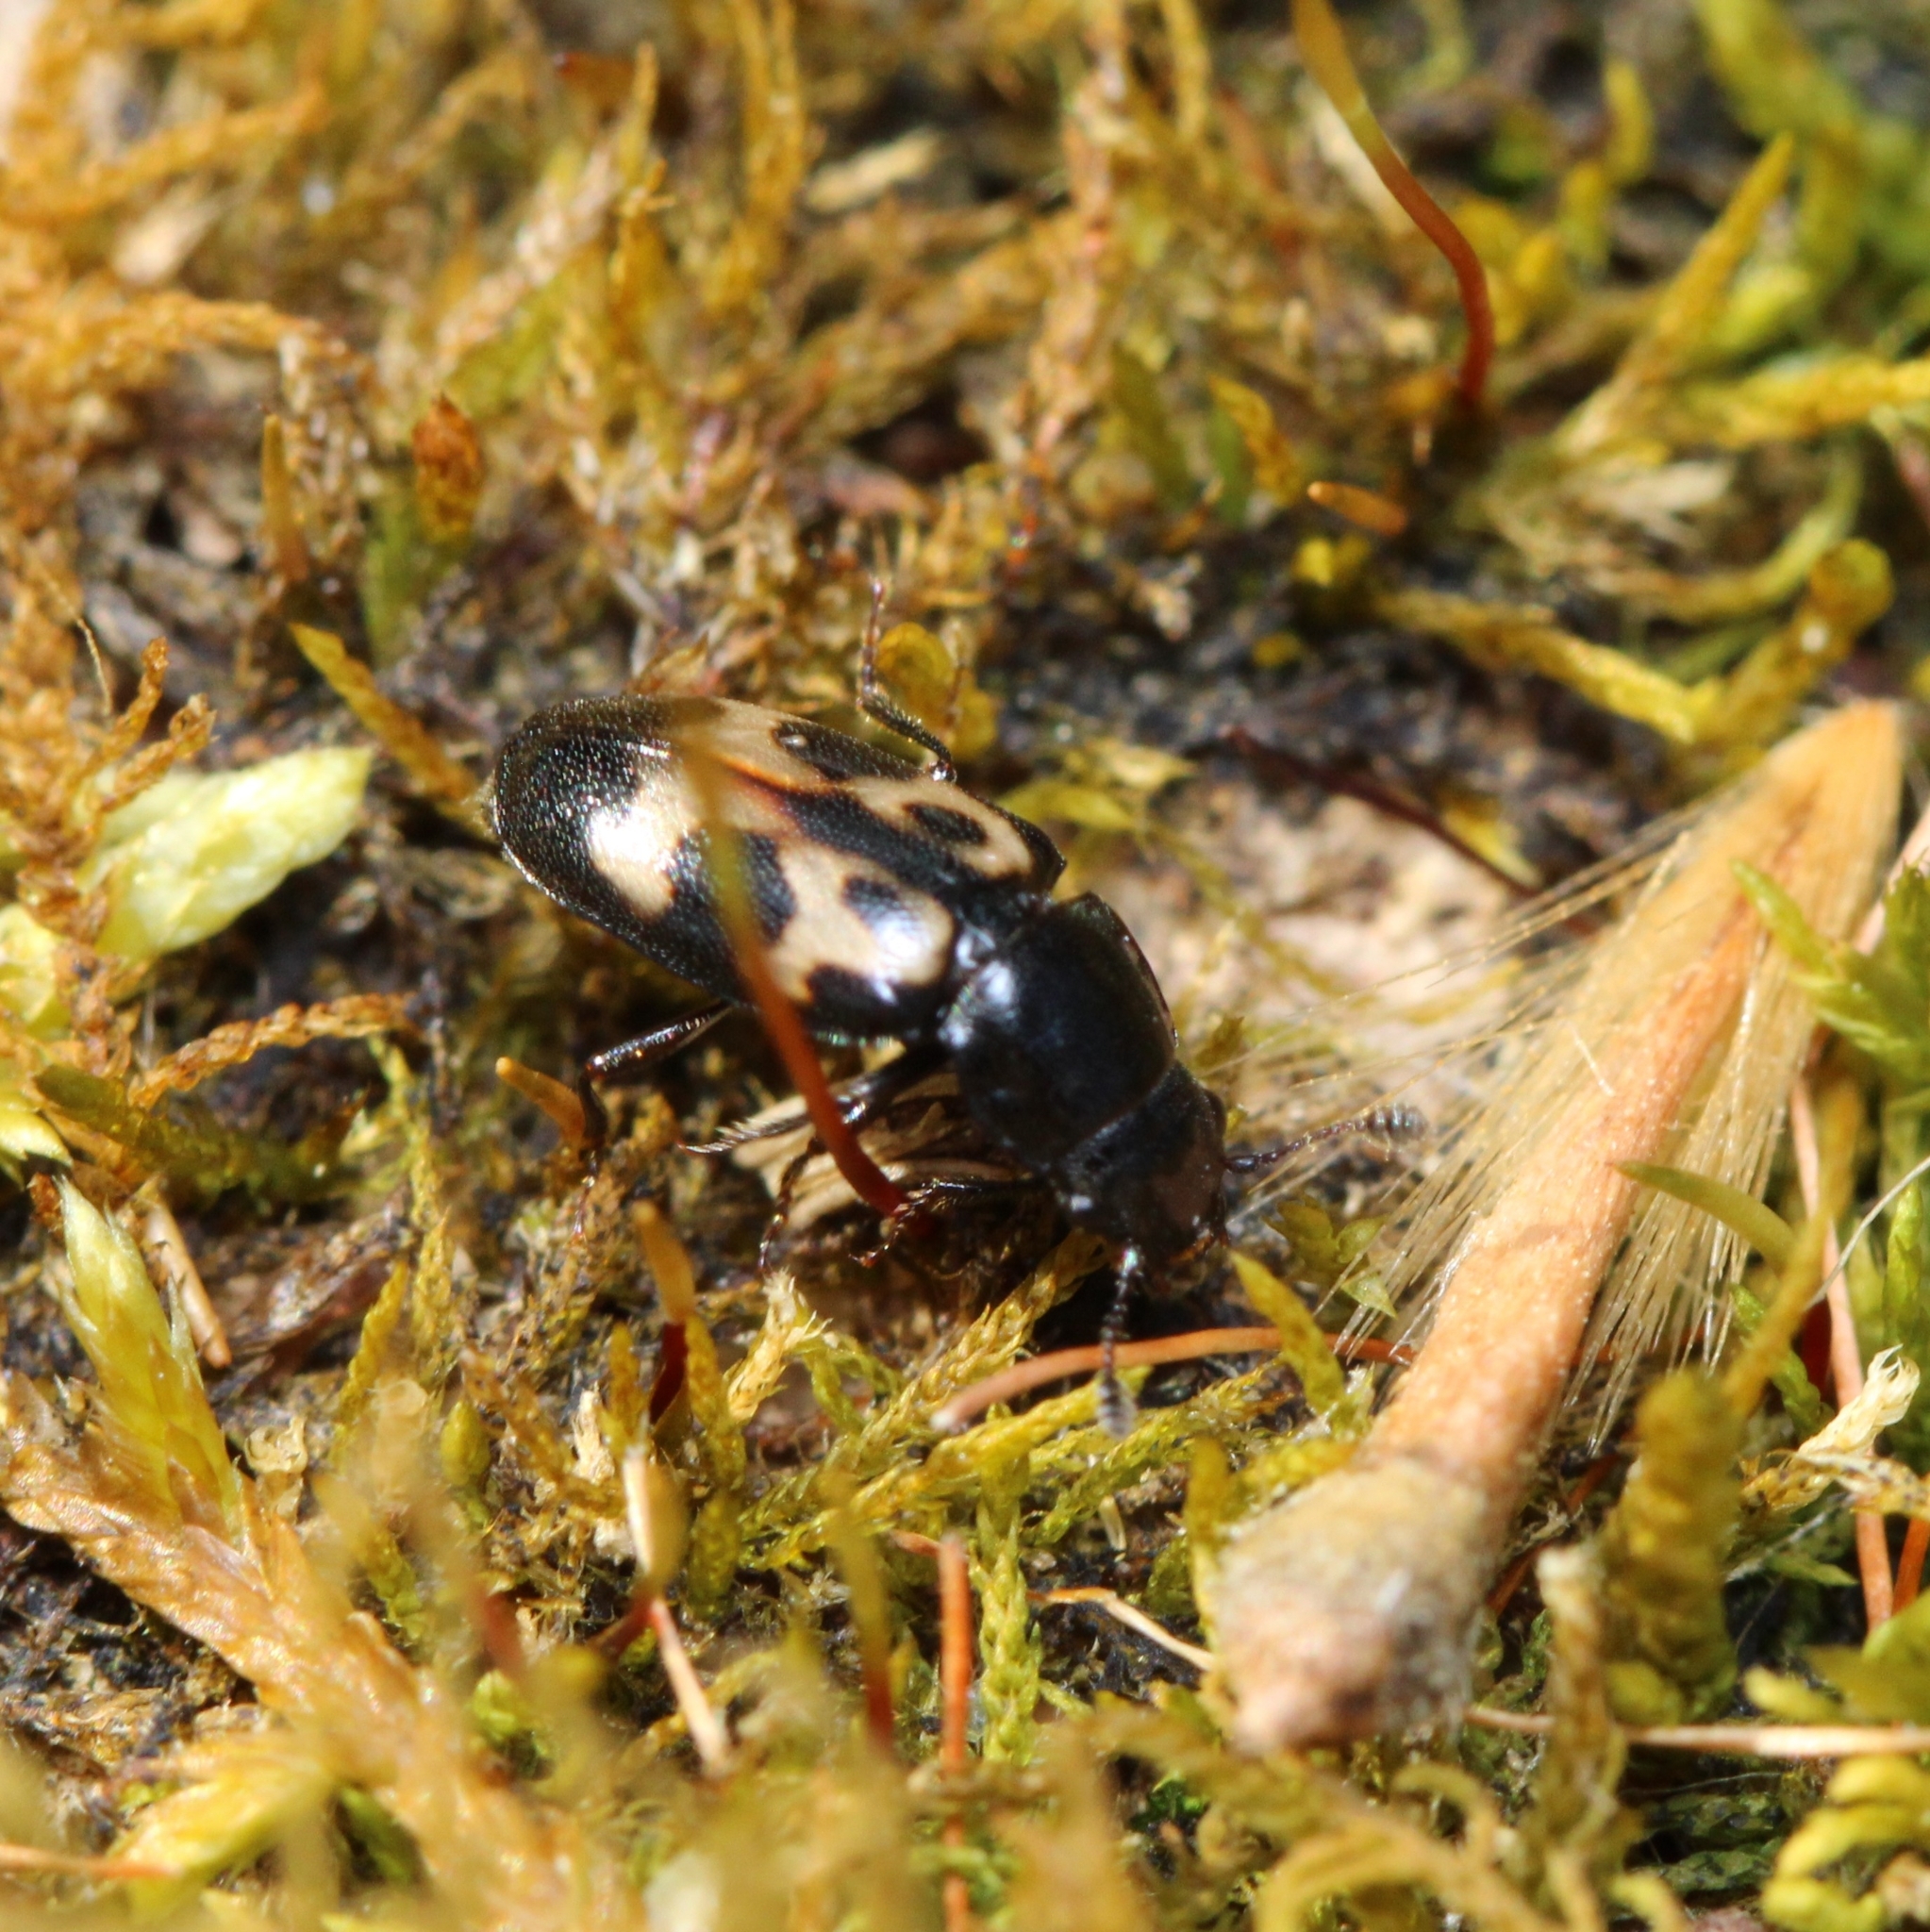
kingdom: Animalia
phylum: Arthropoda
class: Insecta
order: Coleoptera
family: Nitidulidae
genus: Glischrochilus
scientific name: Glischrochilus confluentus
